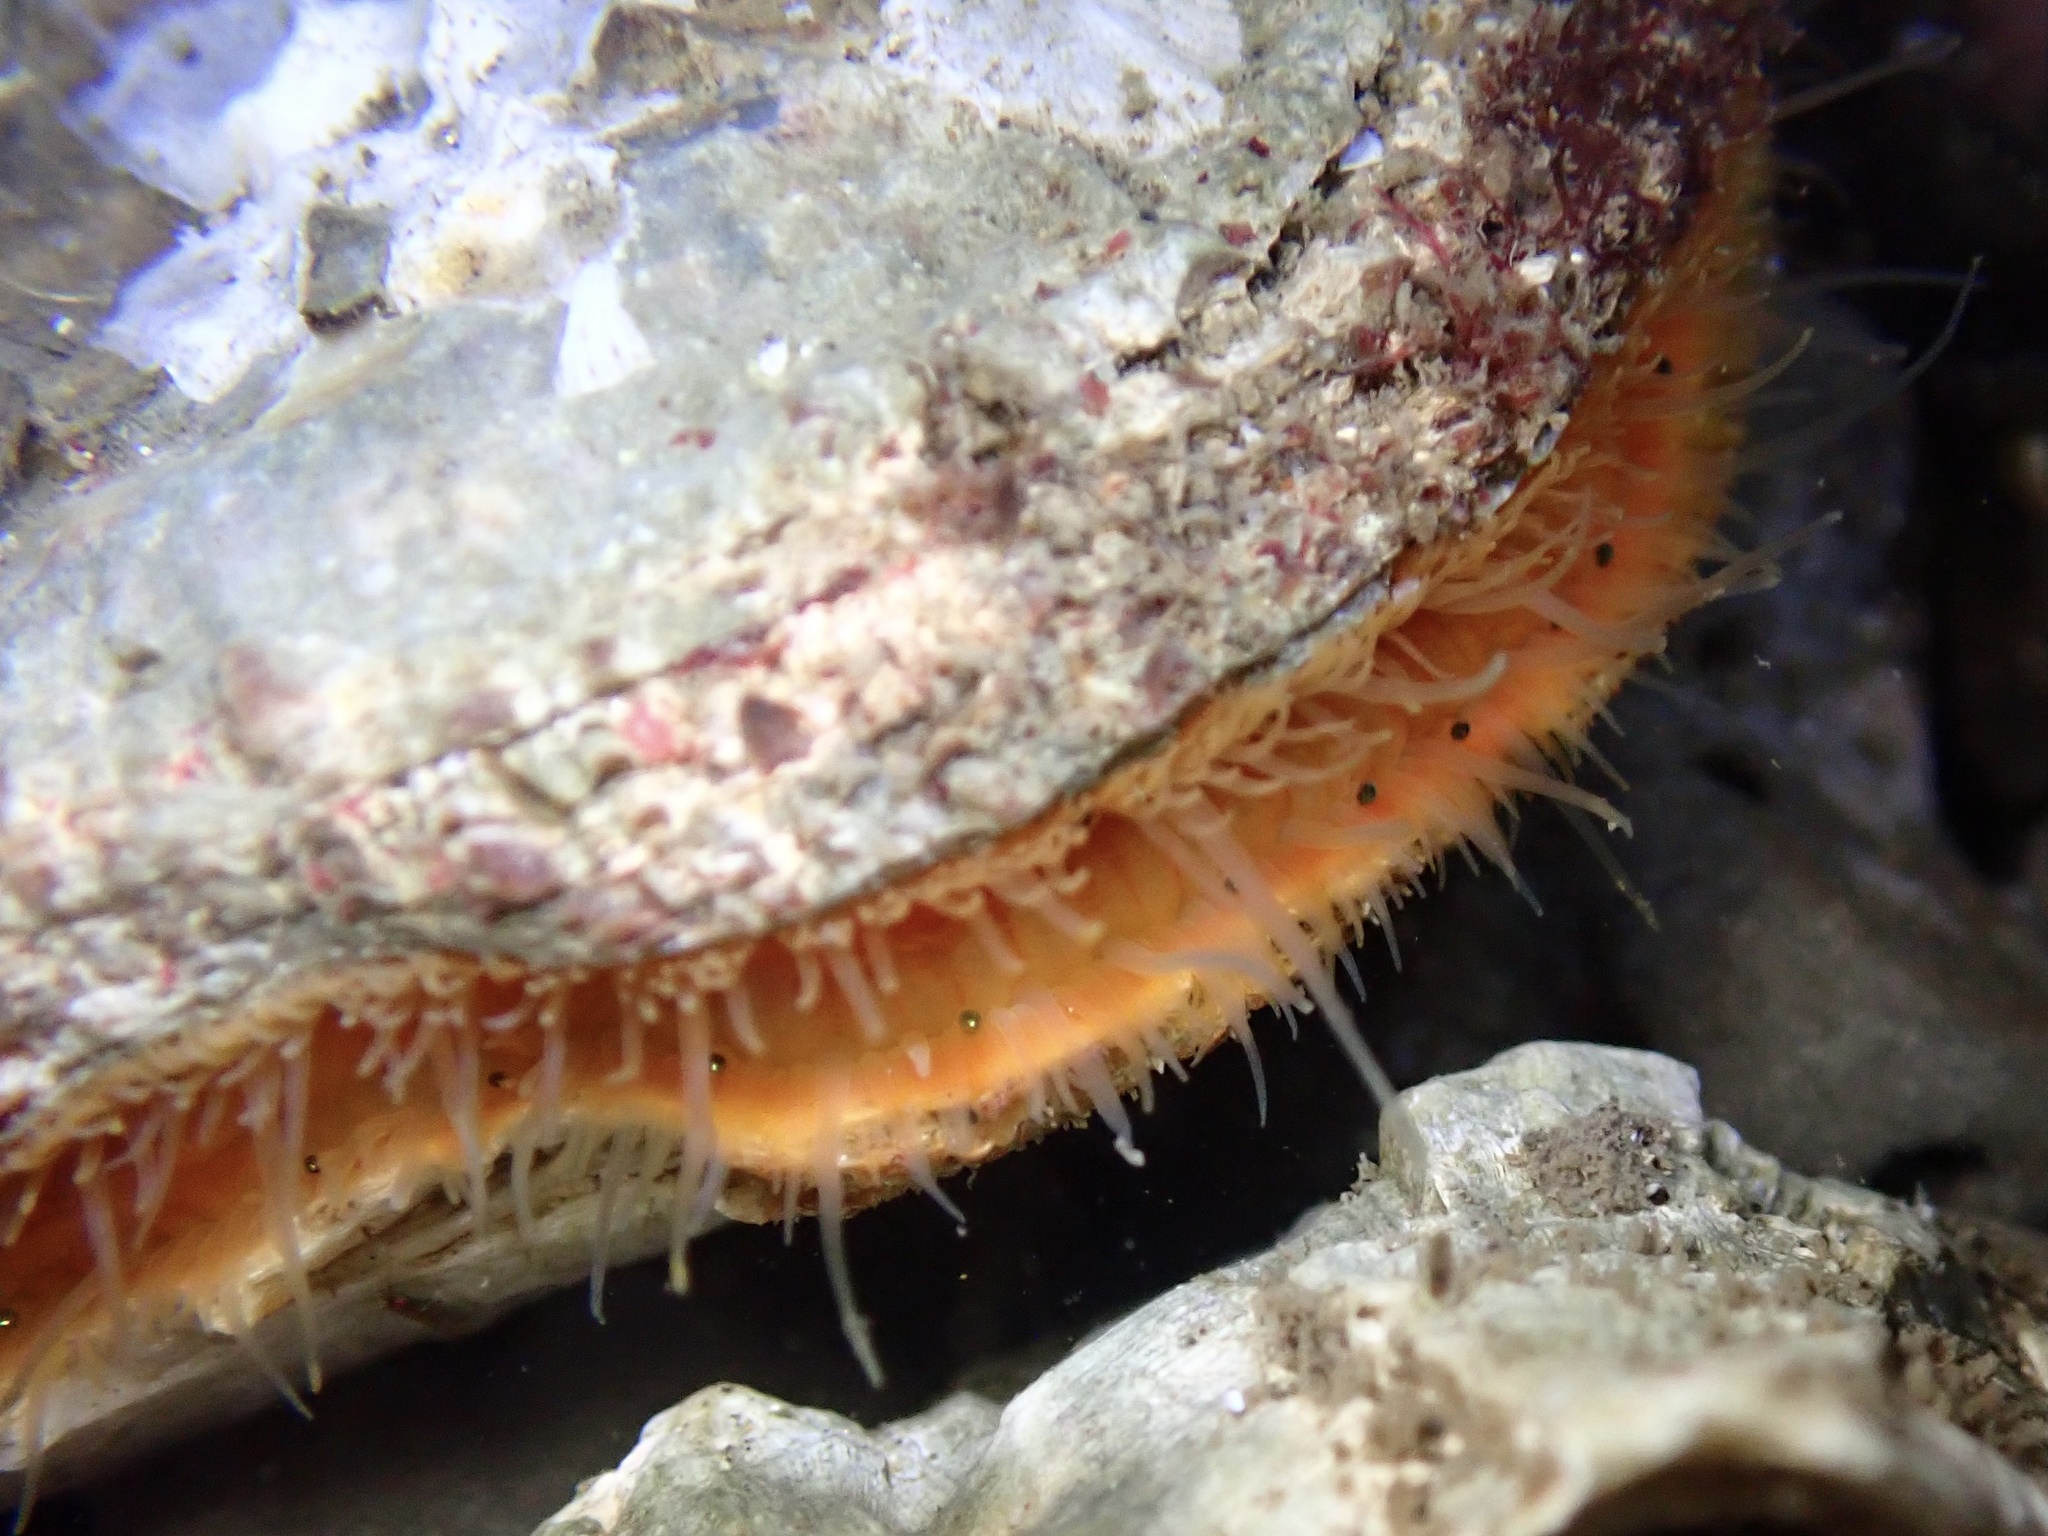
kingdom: Animalia
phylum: Mollusca
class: Bivalvia
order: Pectinida
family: Pectinidae
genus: Crassadoma
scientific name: Crassadoma gigantea
